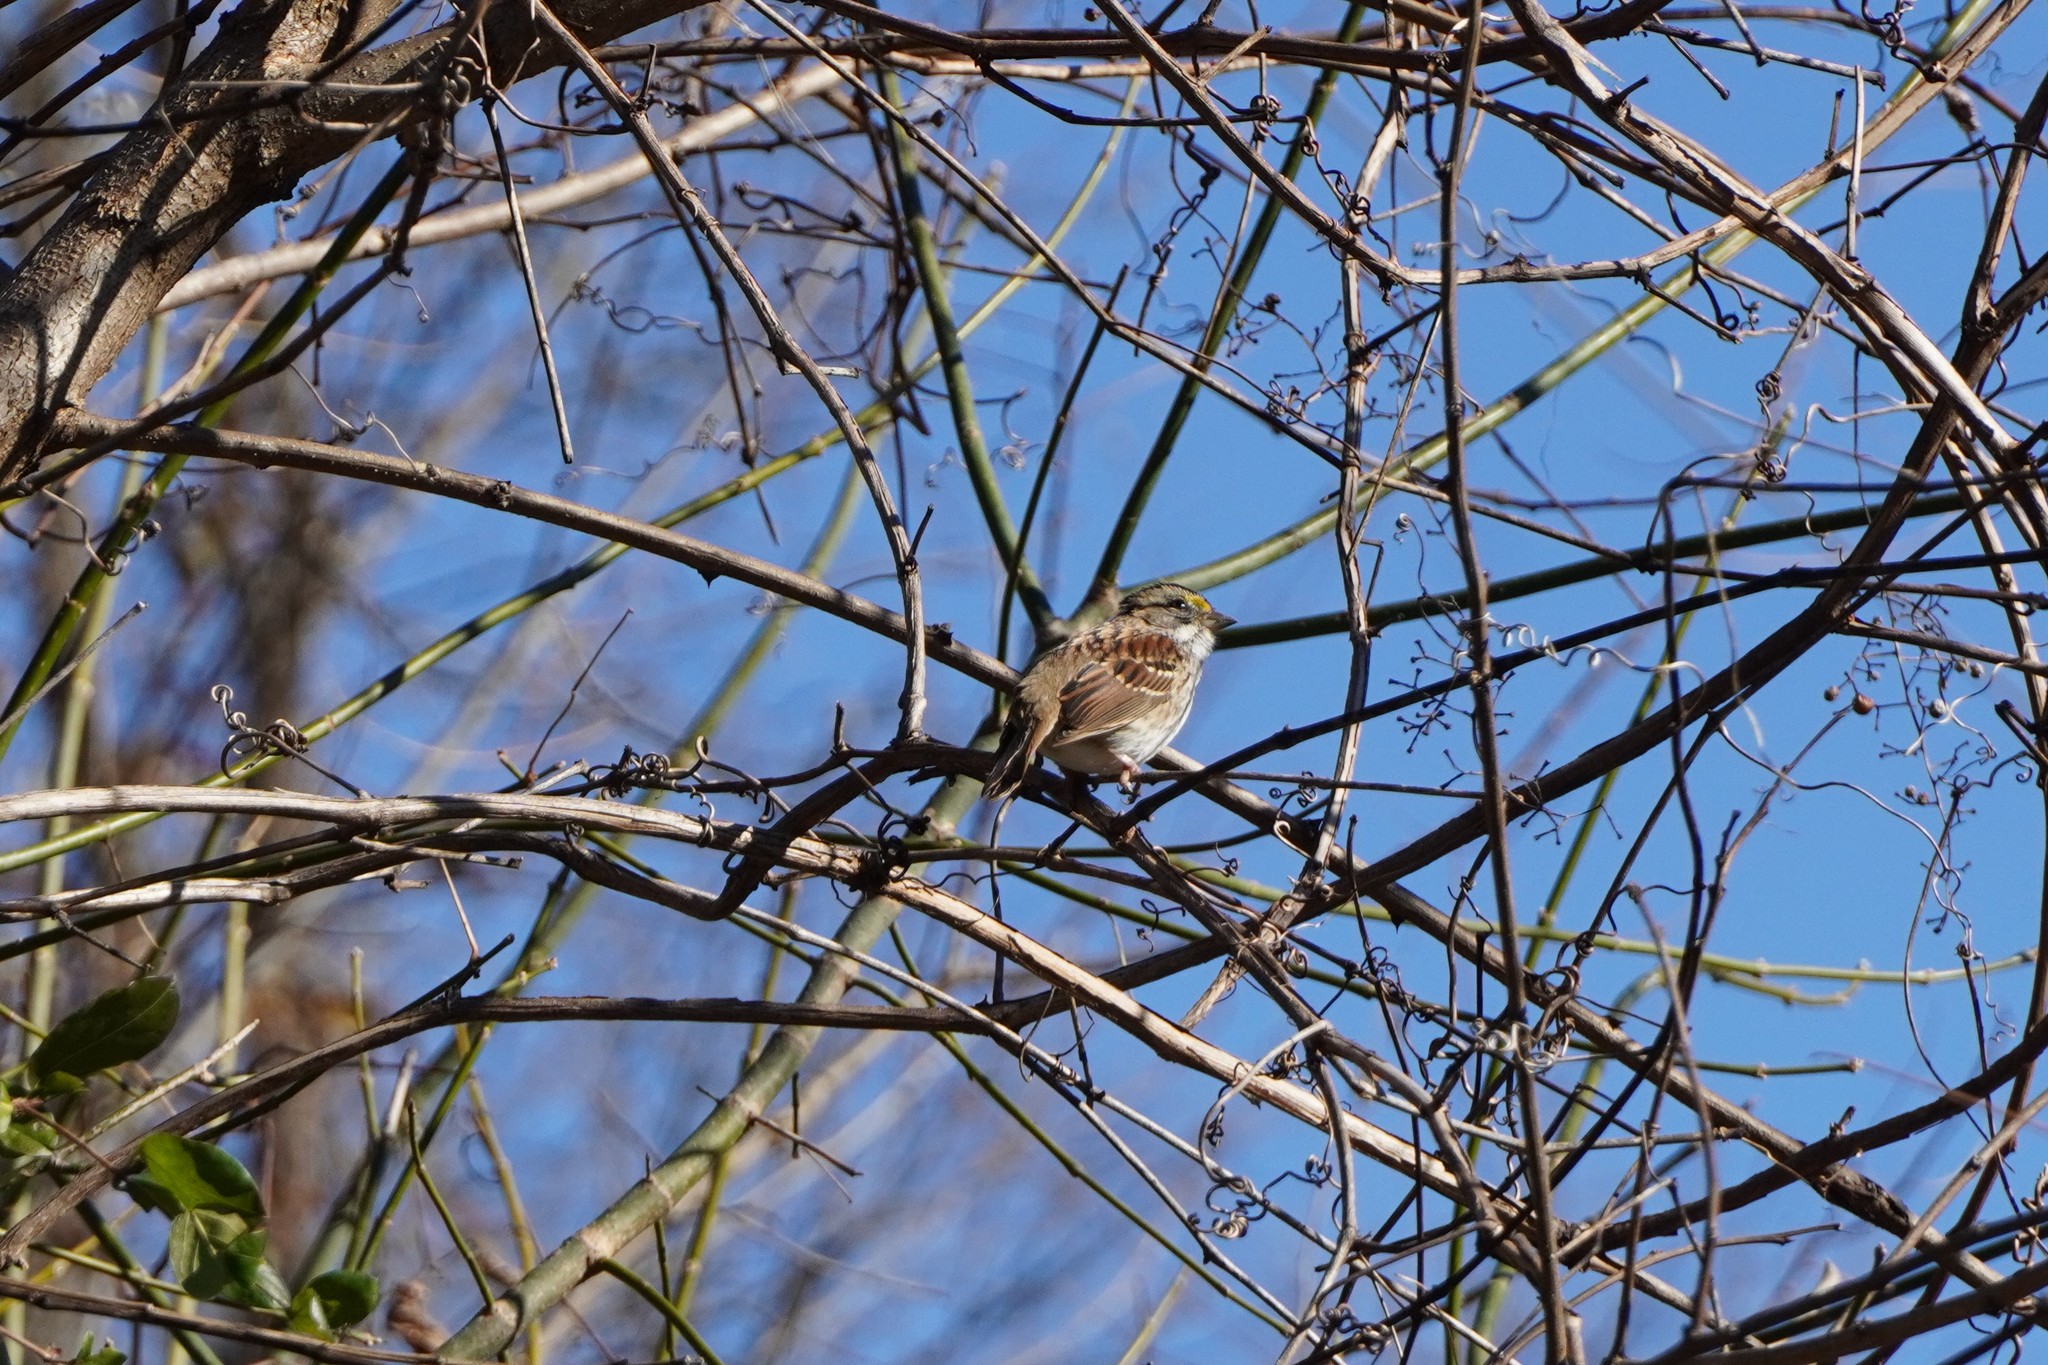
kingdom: Animalia
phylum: Chordata
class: Aves
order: Passeriformes
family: Passerellidae
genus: Zonotrichia
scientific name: Zonotrichia albicollis
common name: White-throated sparrow
